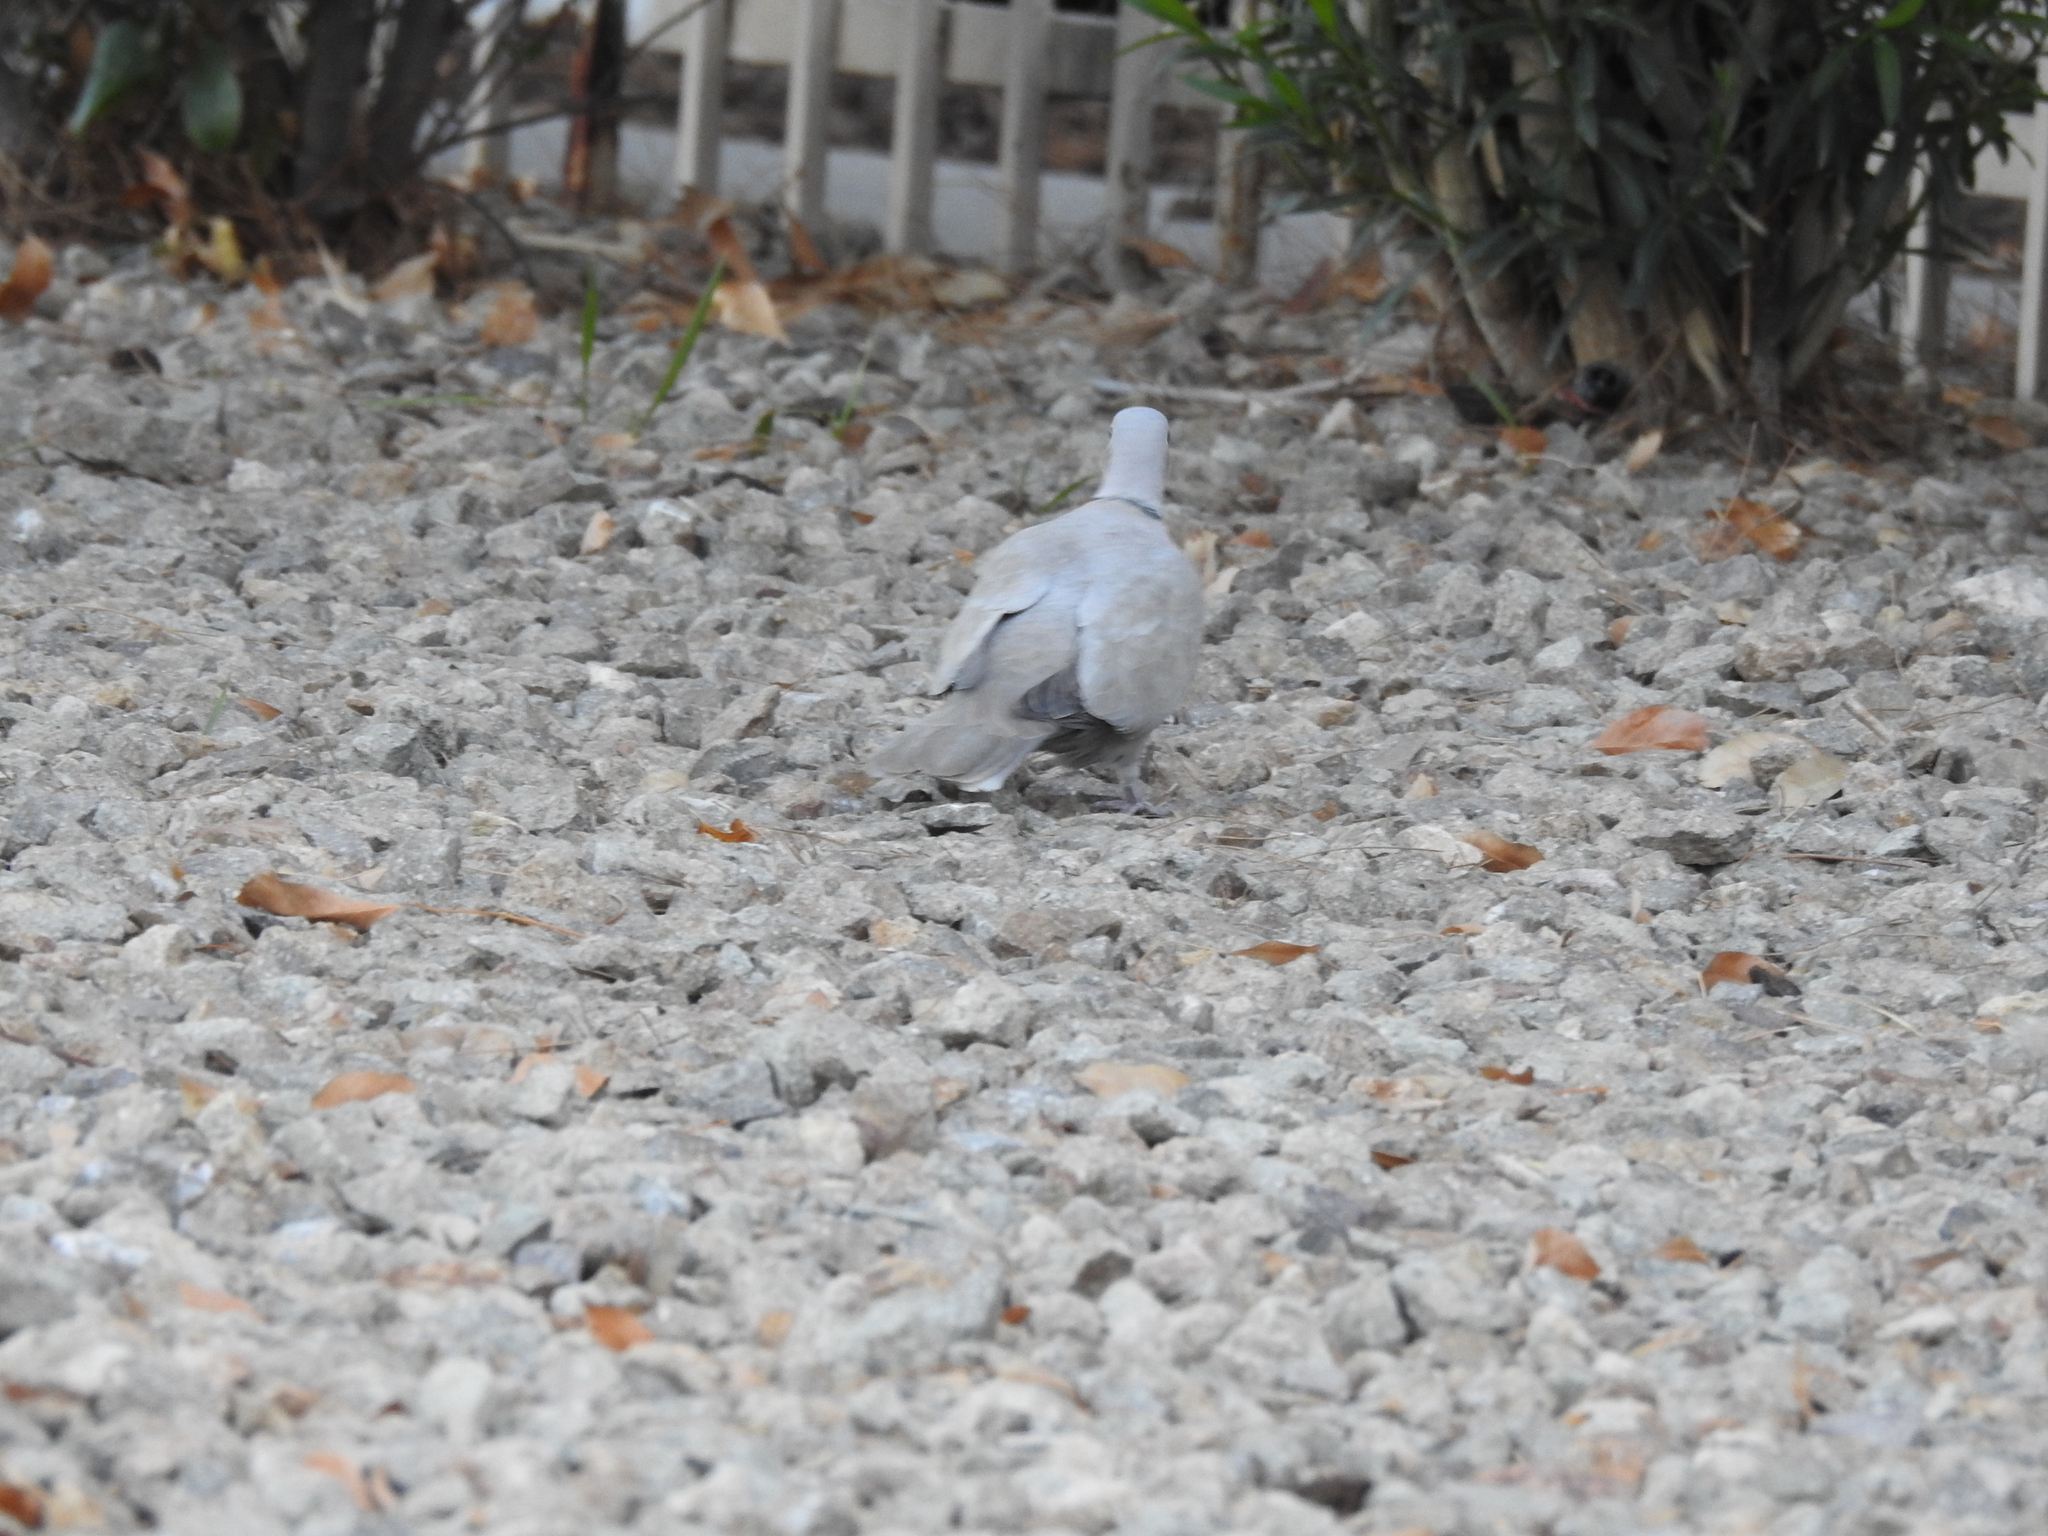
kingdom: Animalia
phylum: Chordata
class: Aves
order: Columbiformes
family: Columbidae
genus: Streptopelia
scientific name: Streptopelia decaocto
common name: Eurasian collared dove
